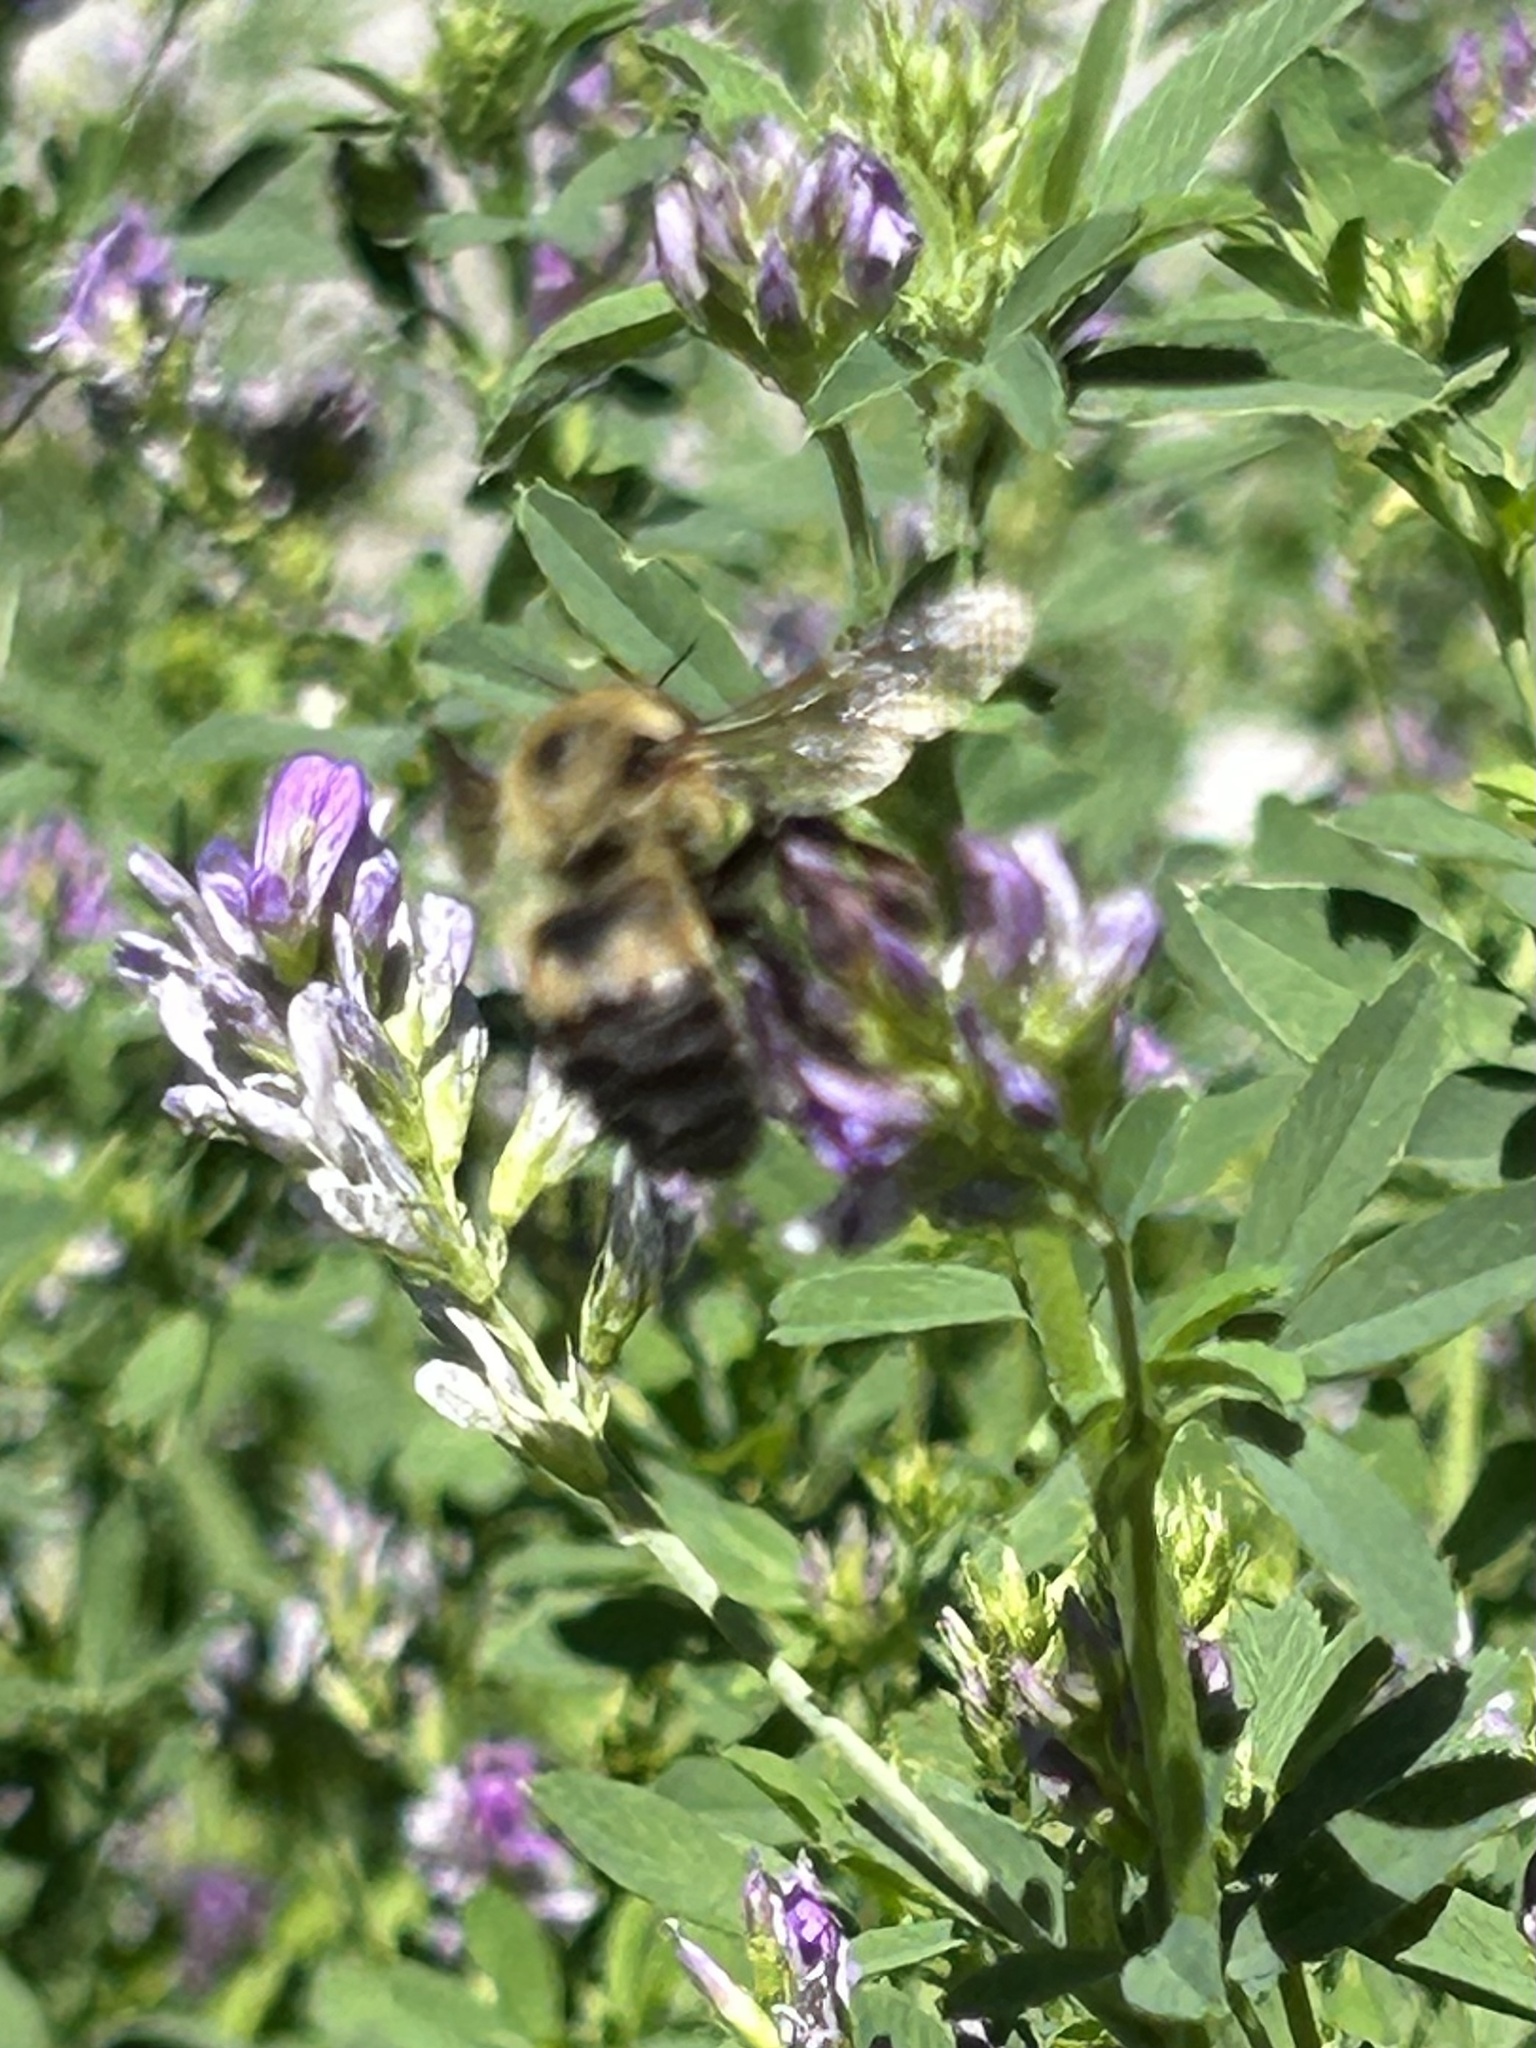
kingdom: Animalia
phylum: Arthropoda
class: Insecta
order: Hymenoptera
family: Apidae
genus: Bombus
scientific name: Bombus griseocollis
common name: Brown-belted bumble bee
